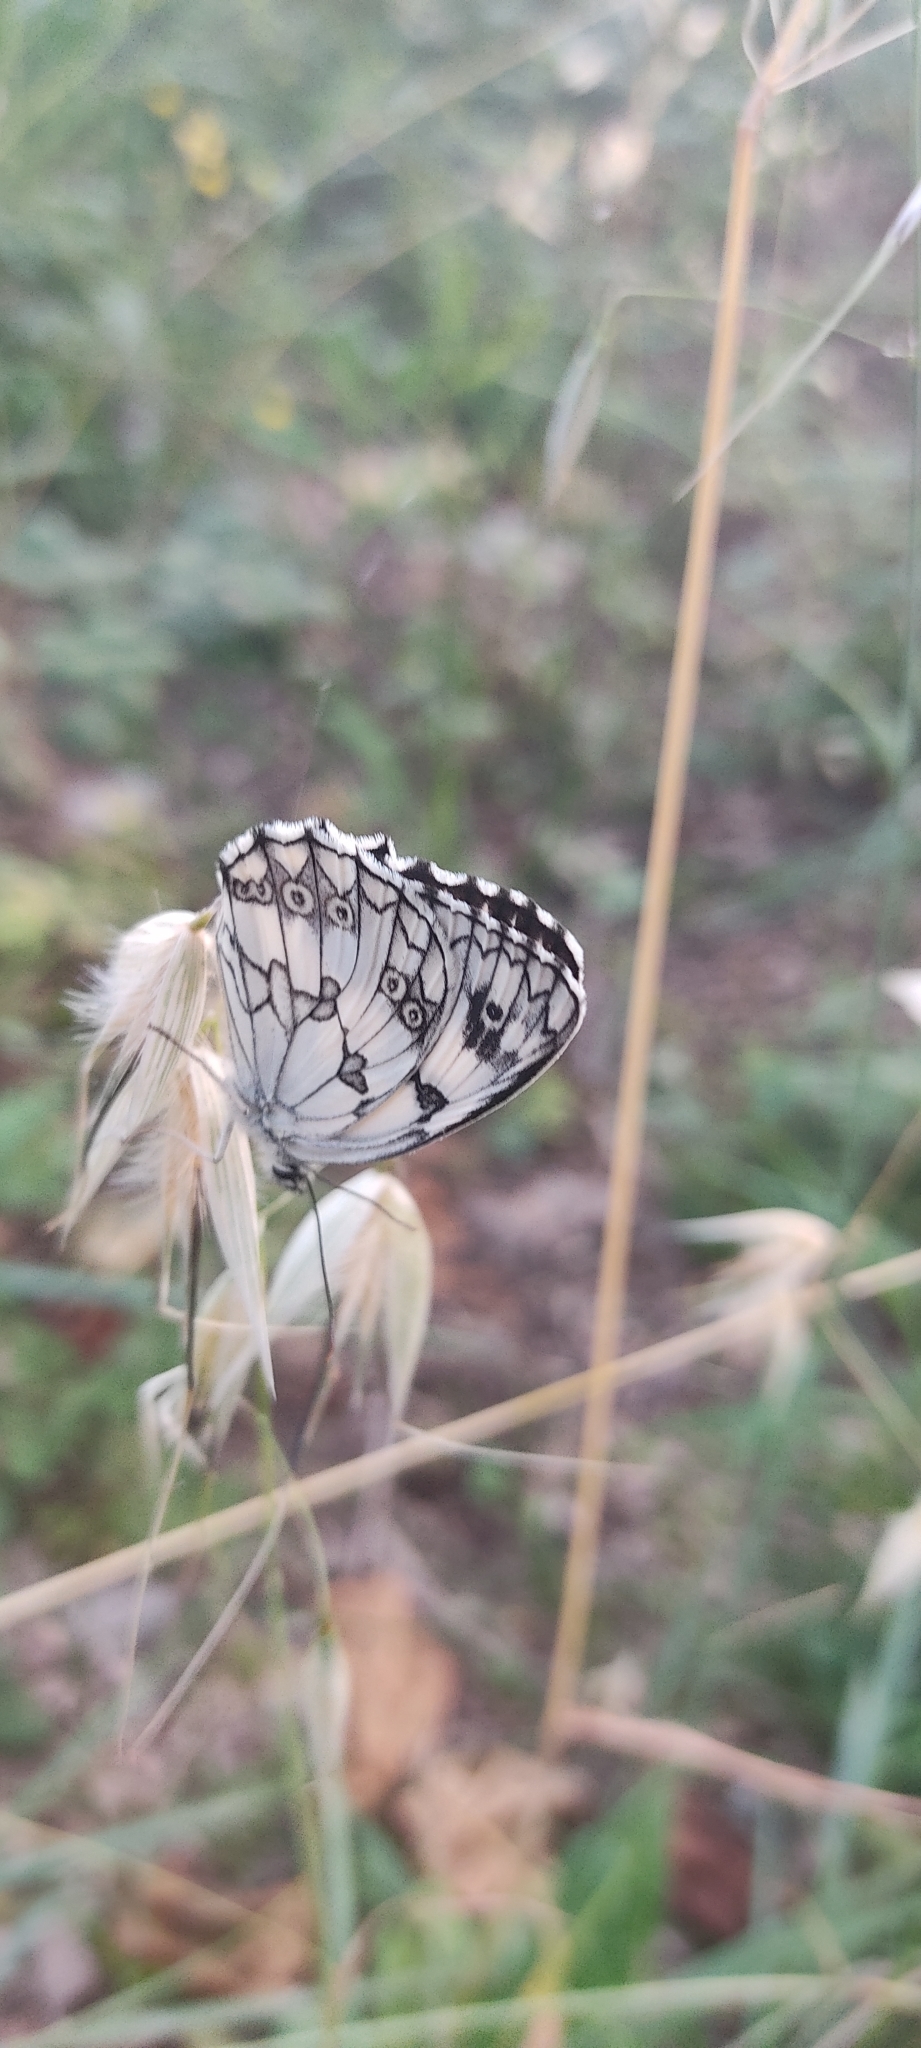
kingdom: Animalia
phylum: Arthropoda
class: Insecta
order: Lepidoptera
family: Nymphalidae
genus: Melanargia
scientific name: Melanargia lachesis
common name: Iberian marbled white
